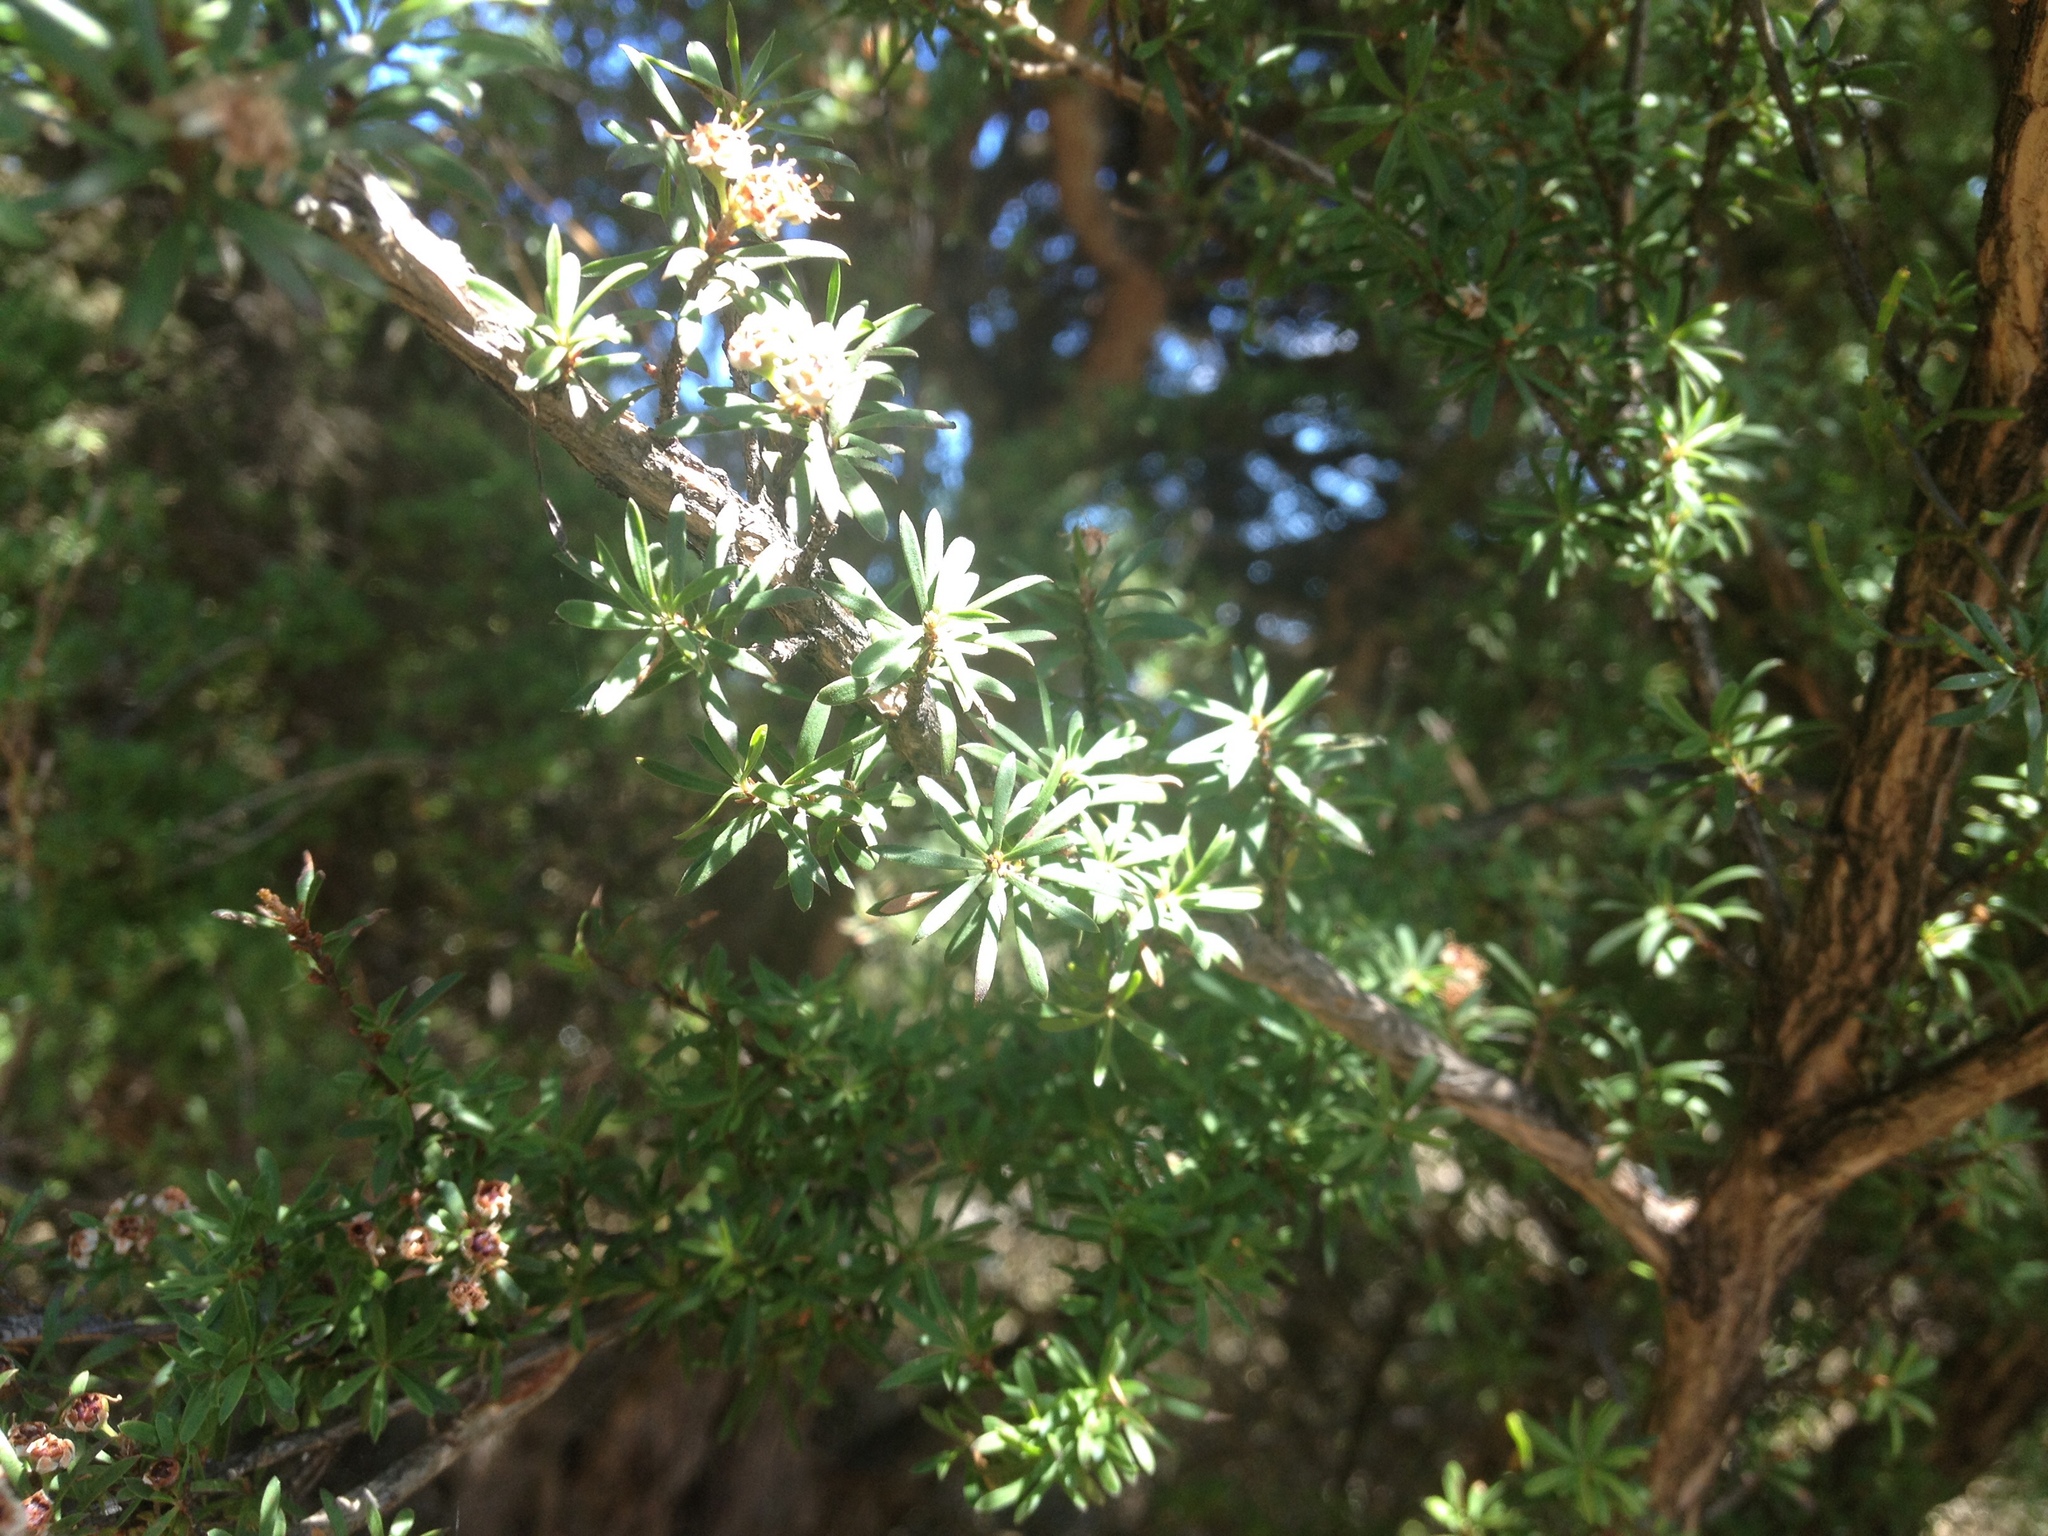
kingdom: Plantae
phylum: Tracheophyta
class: Magnoliopsida
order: Myrtales
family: Myrtaceae
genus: Kunzea
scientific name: Kunzea robusta
